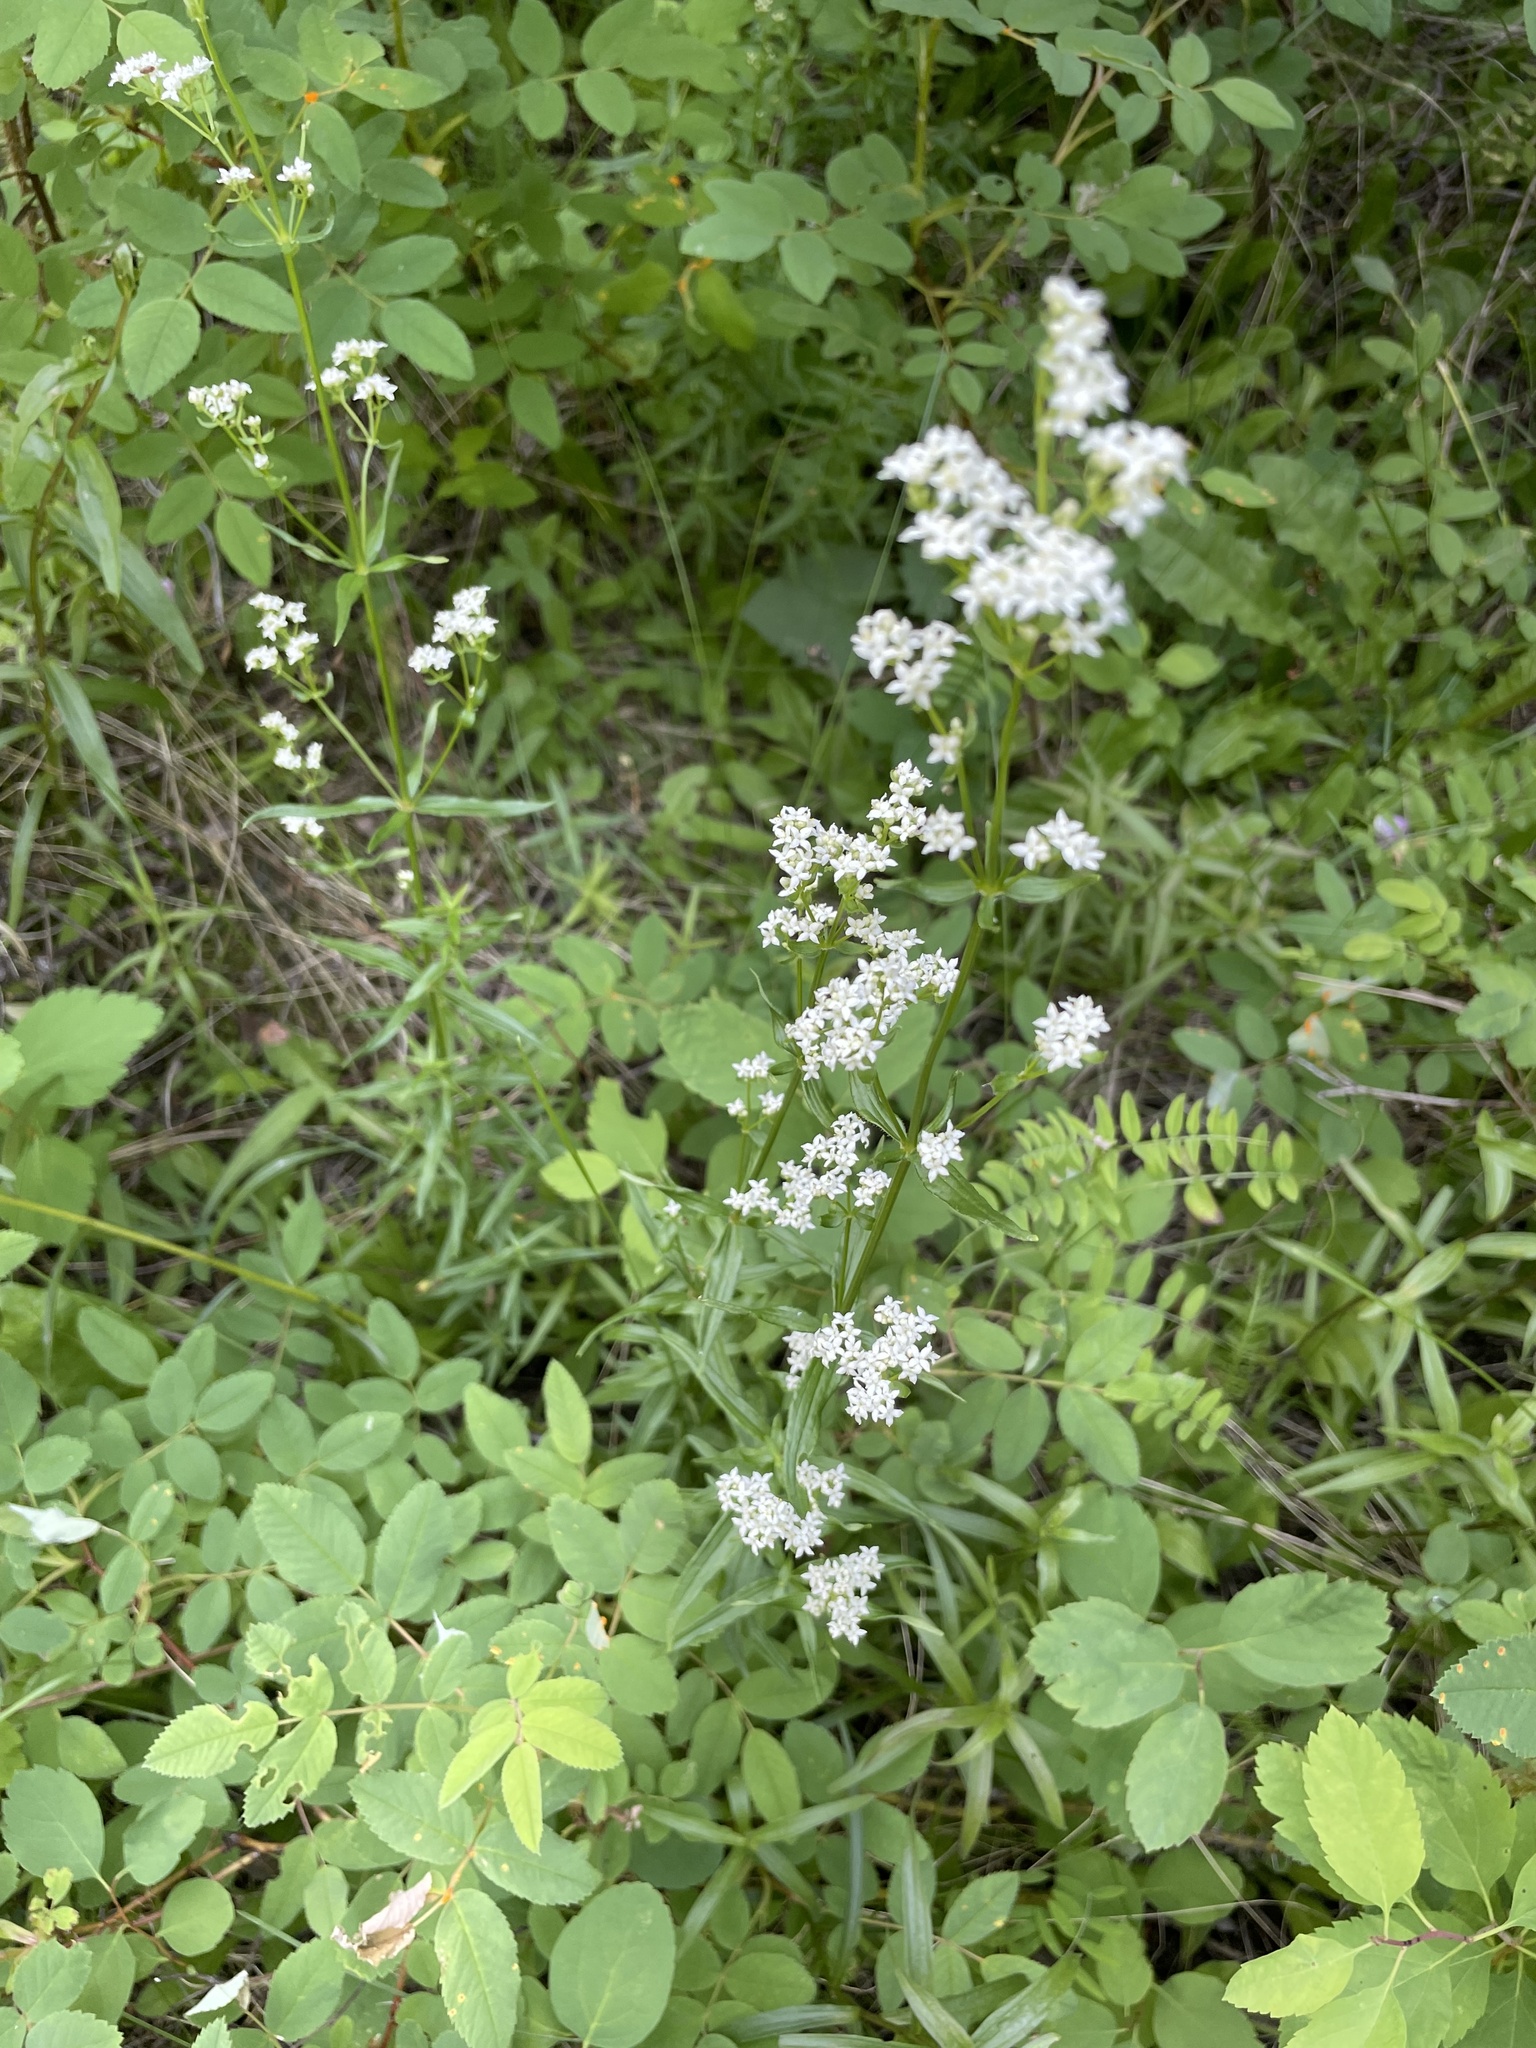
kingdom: Plantae
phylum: Tracheophyta
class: Magnoliopsida
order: Gentianales
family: Rubiaceae
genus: Galium
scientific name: Galium boreale
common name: Northern bedstraw
